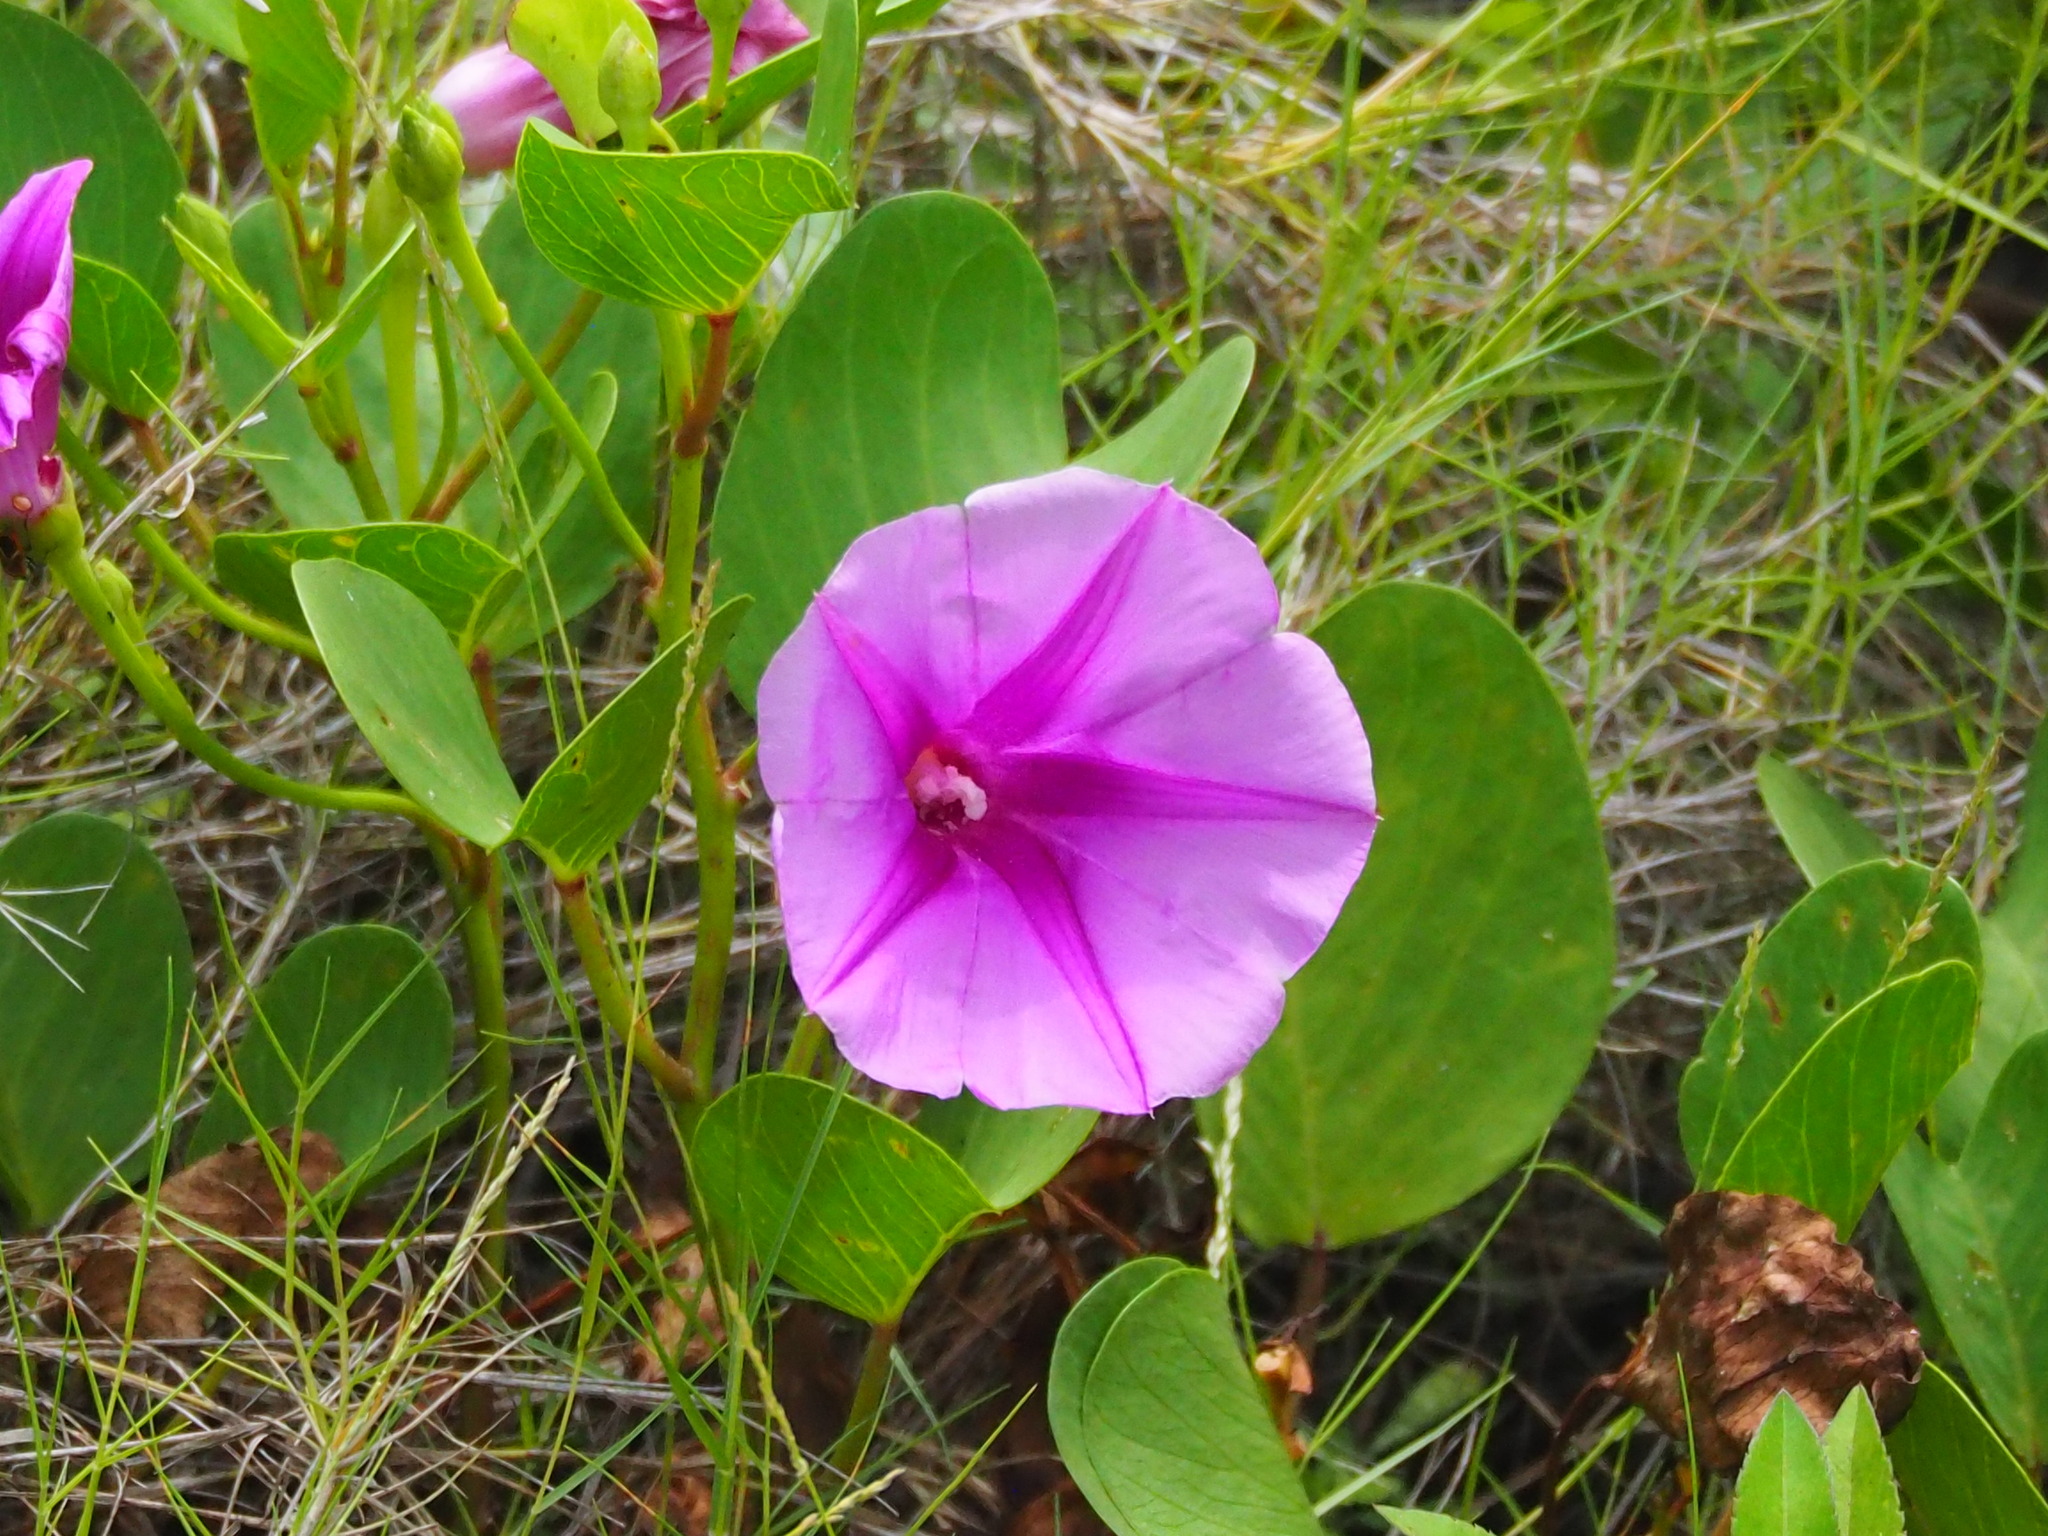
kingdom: Plantae
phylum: Tracheophyta
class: Magnoliopsida
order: Solanales
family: Convolvulaceae
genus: Ipomoea
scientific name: Ipomoea pes-caprae
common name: Beach morning glory
